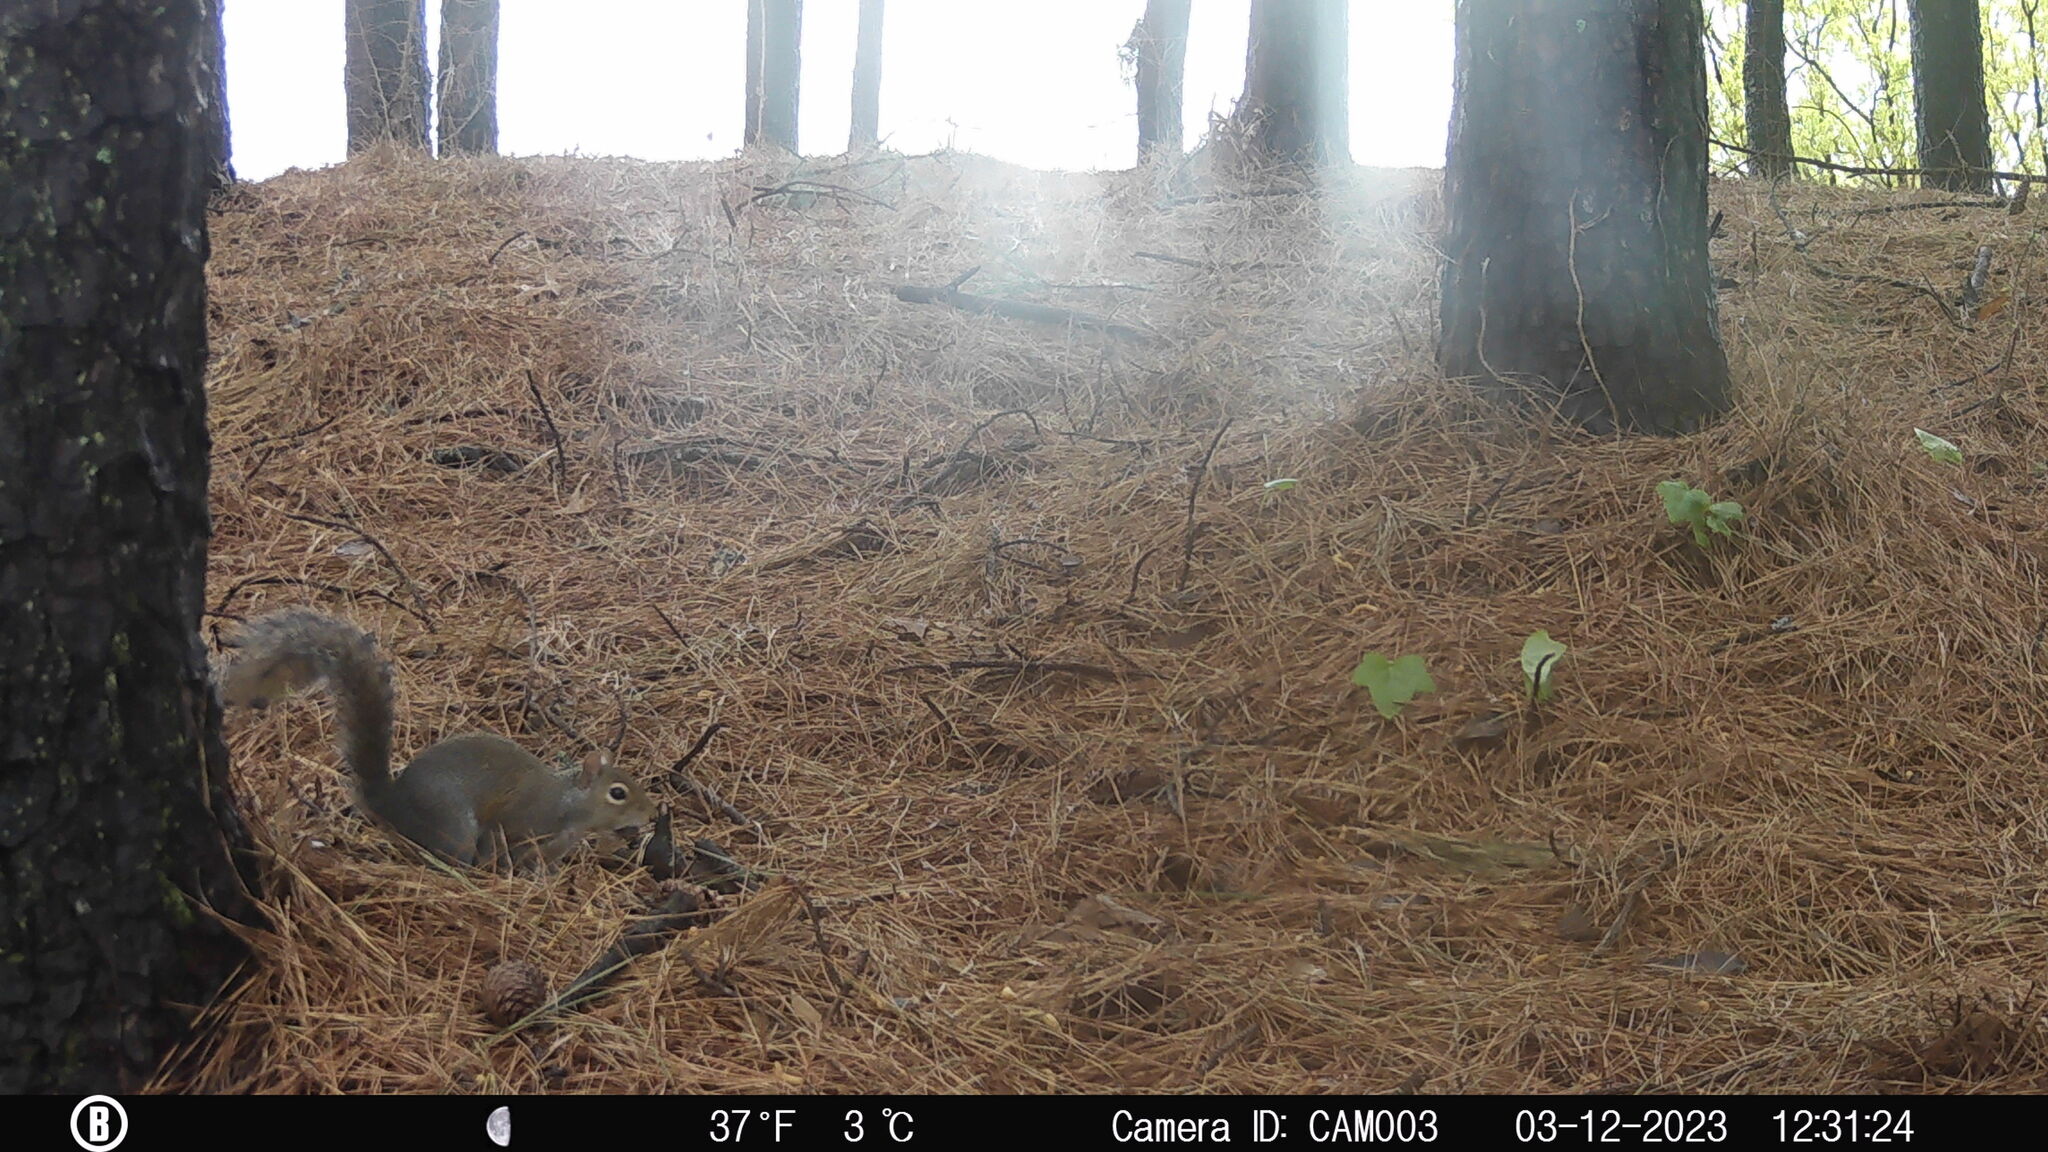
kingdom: Animalia
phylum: Chordata
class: Mammalia
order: Rodentia
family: Sciuridae
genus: Sciurus
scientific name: Sciurus carolinensis
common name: Eastern gray squirrel
